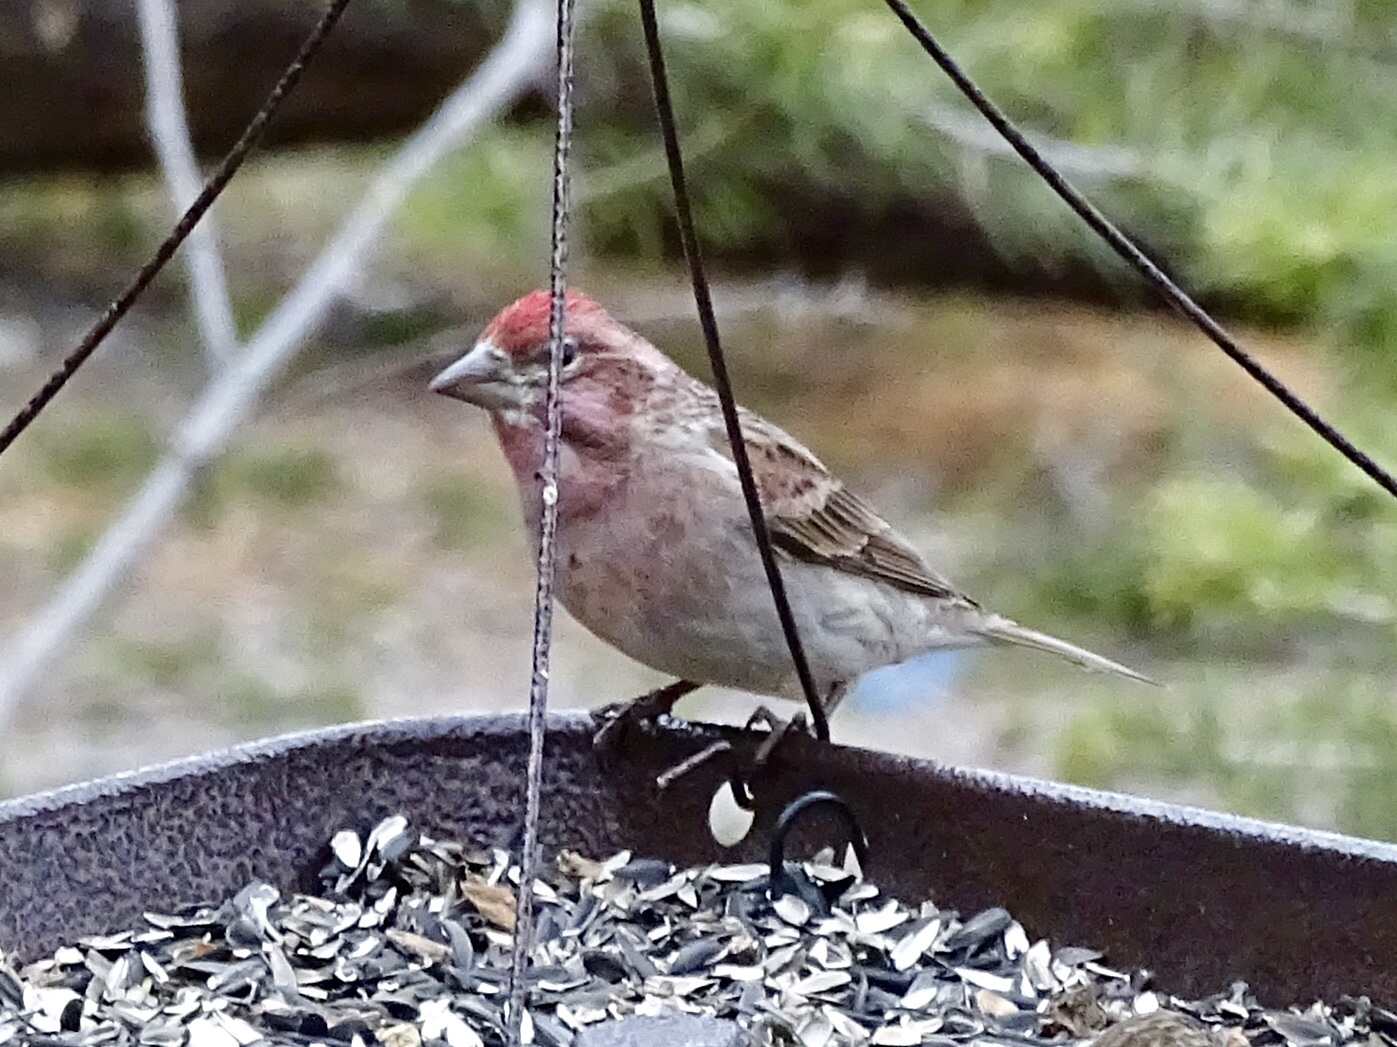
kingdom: Animalia
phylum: Chordata
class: Aves
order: Passeriformes
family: Fringillidae
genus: Haemorhous
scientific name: Haemorhous cassinii
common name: Cassin's finch
